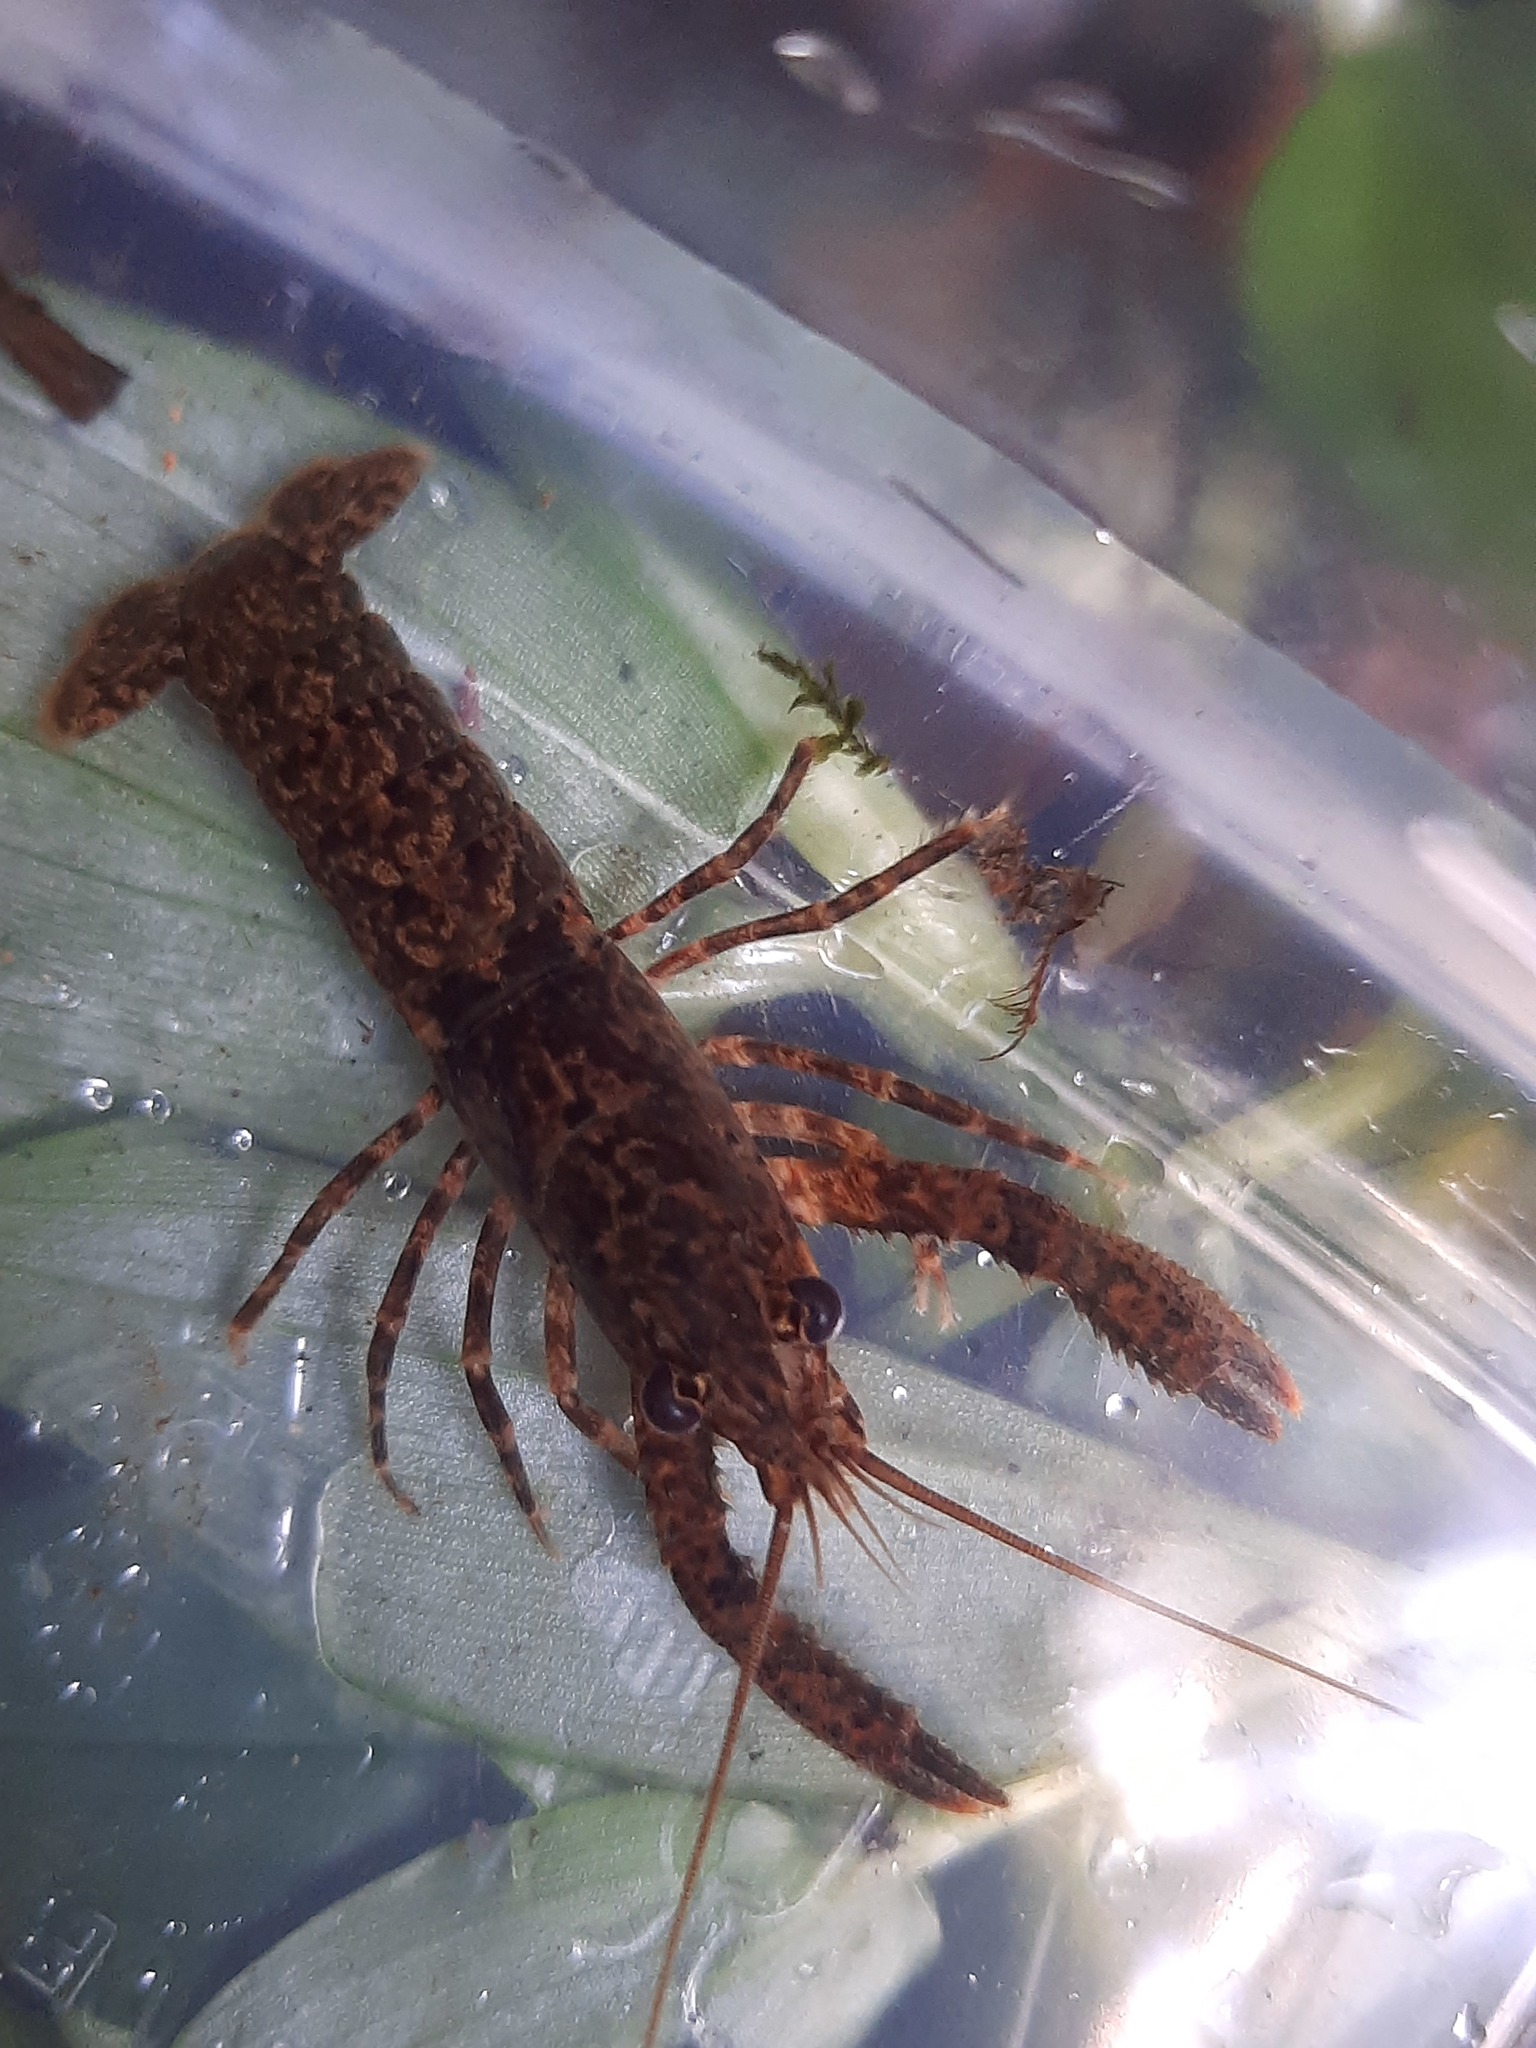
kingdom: Animalia
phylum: Arthropoda
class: Malacostraca
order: Decapoda
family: Parastacidae
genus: Paranephrops
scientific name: Paranephrops planifrons
